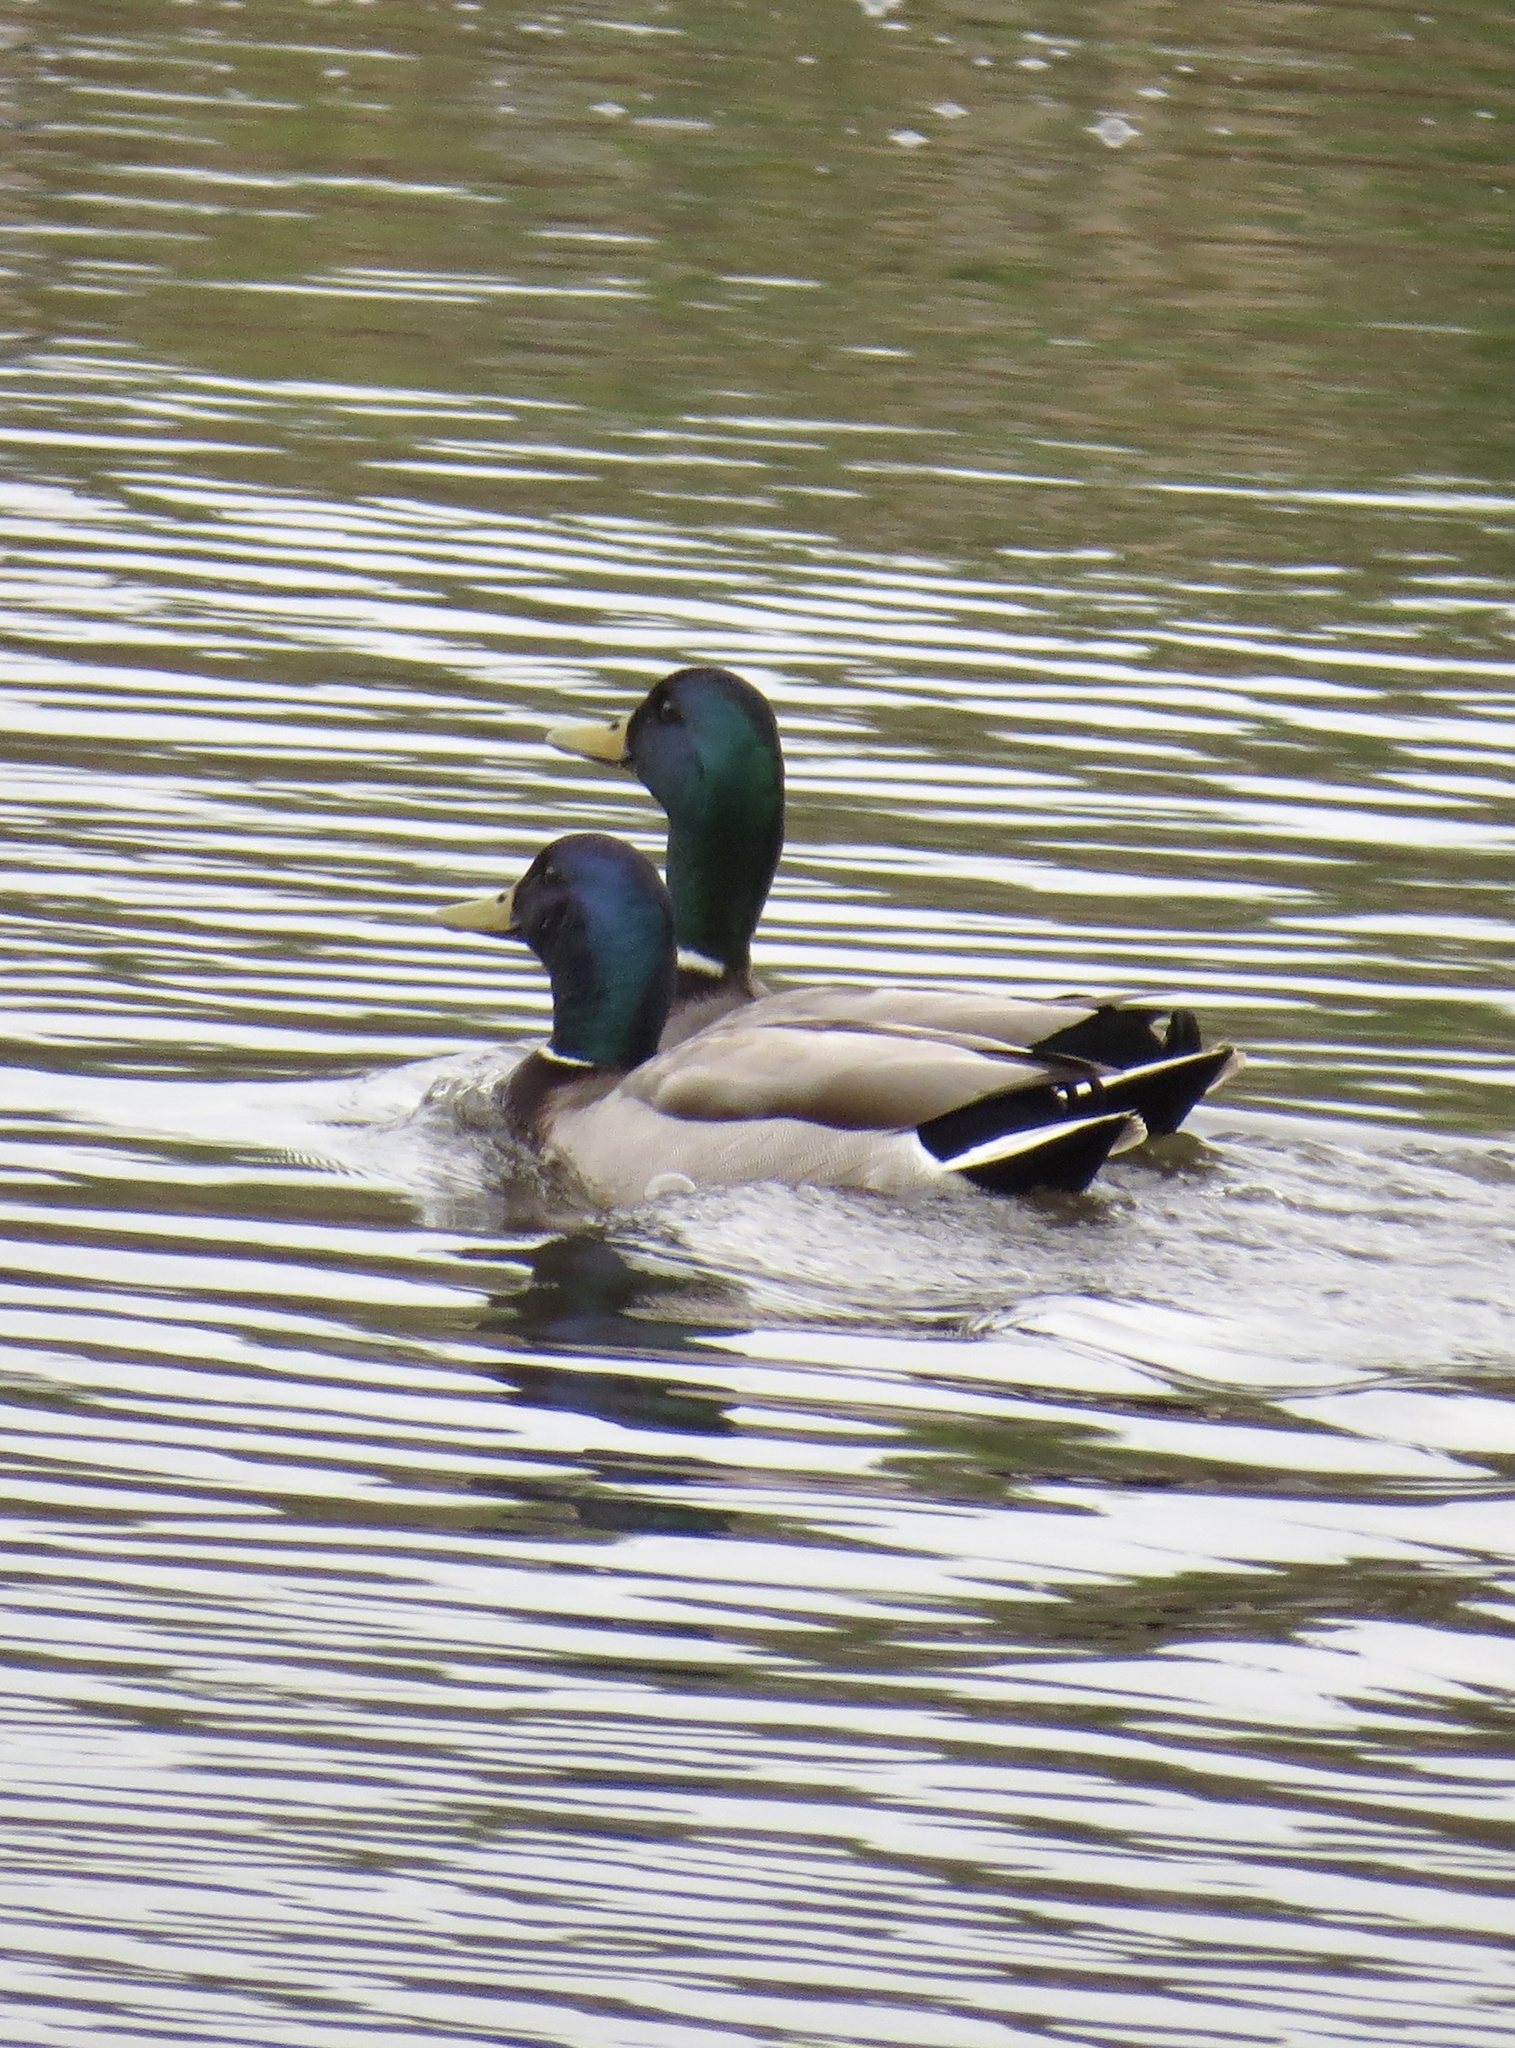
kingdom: Animalia
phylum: Chordata
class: Aves
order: Anseriformes
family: Anatidae
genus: Anas
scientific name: Anas platyrhynchos
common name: Mallard
